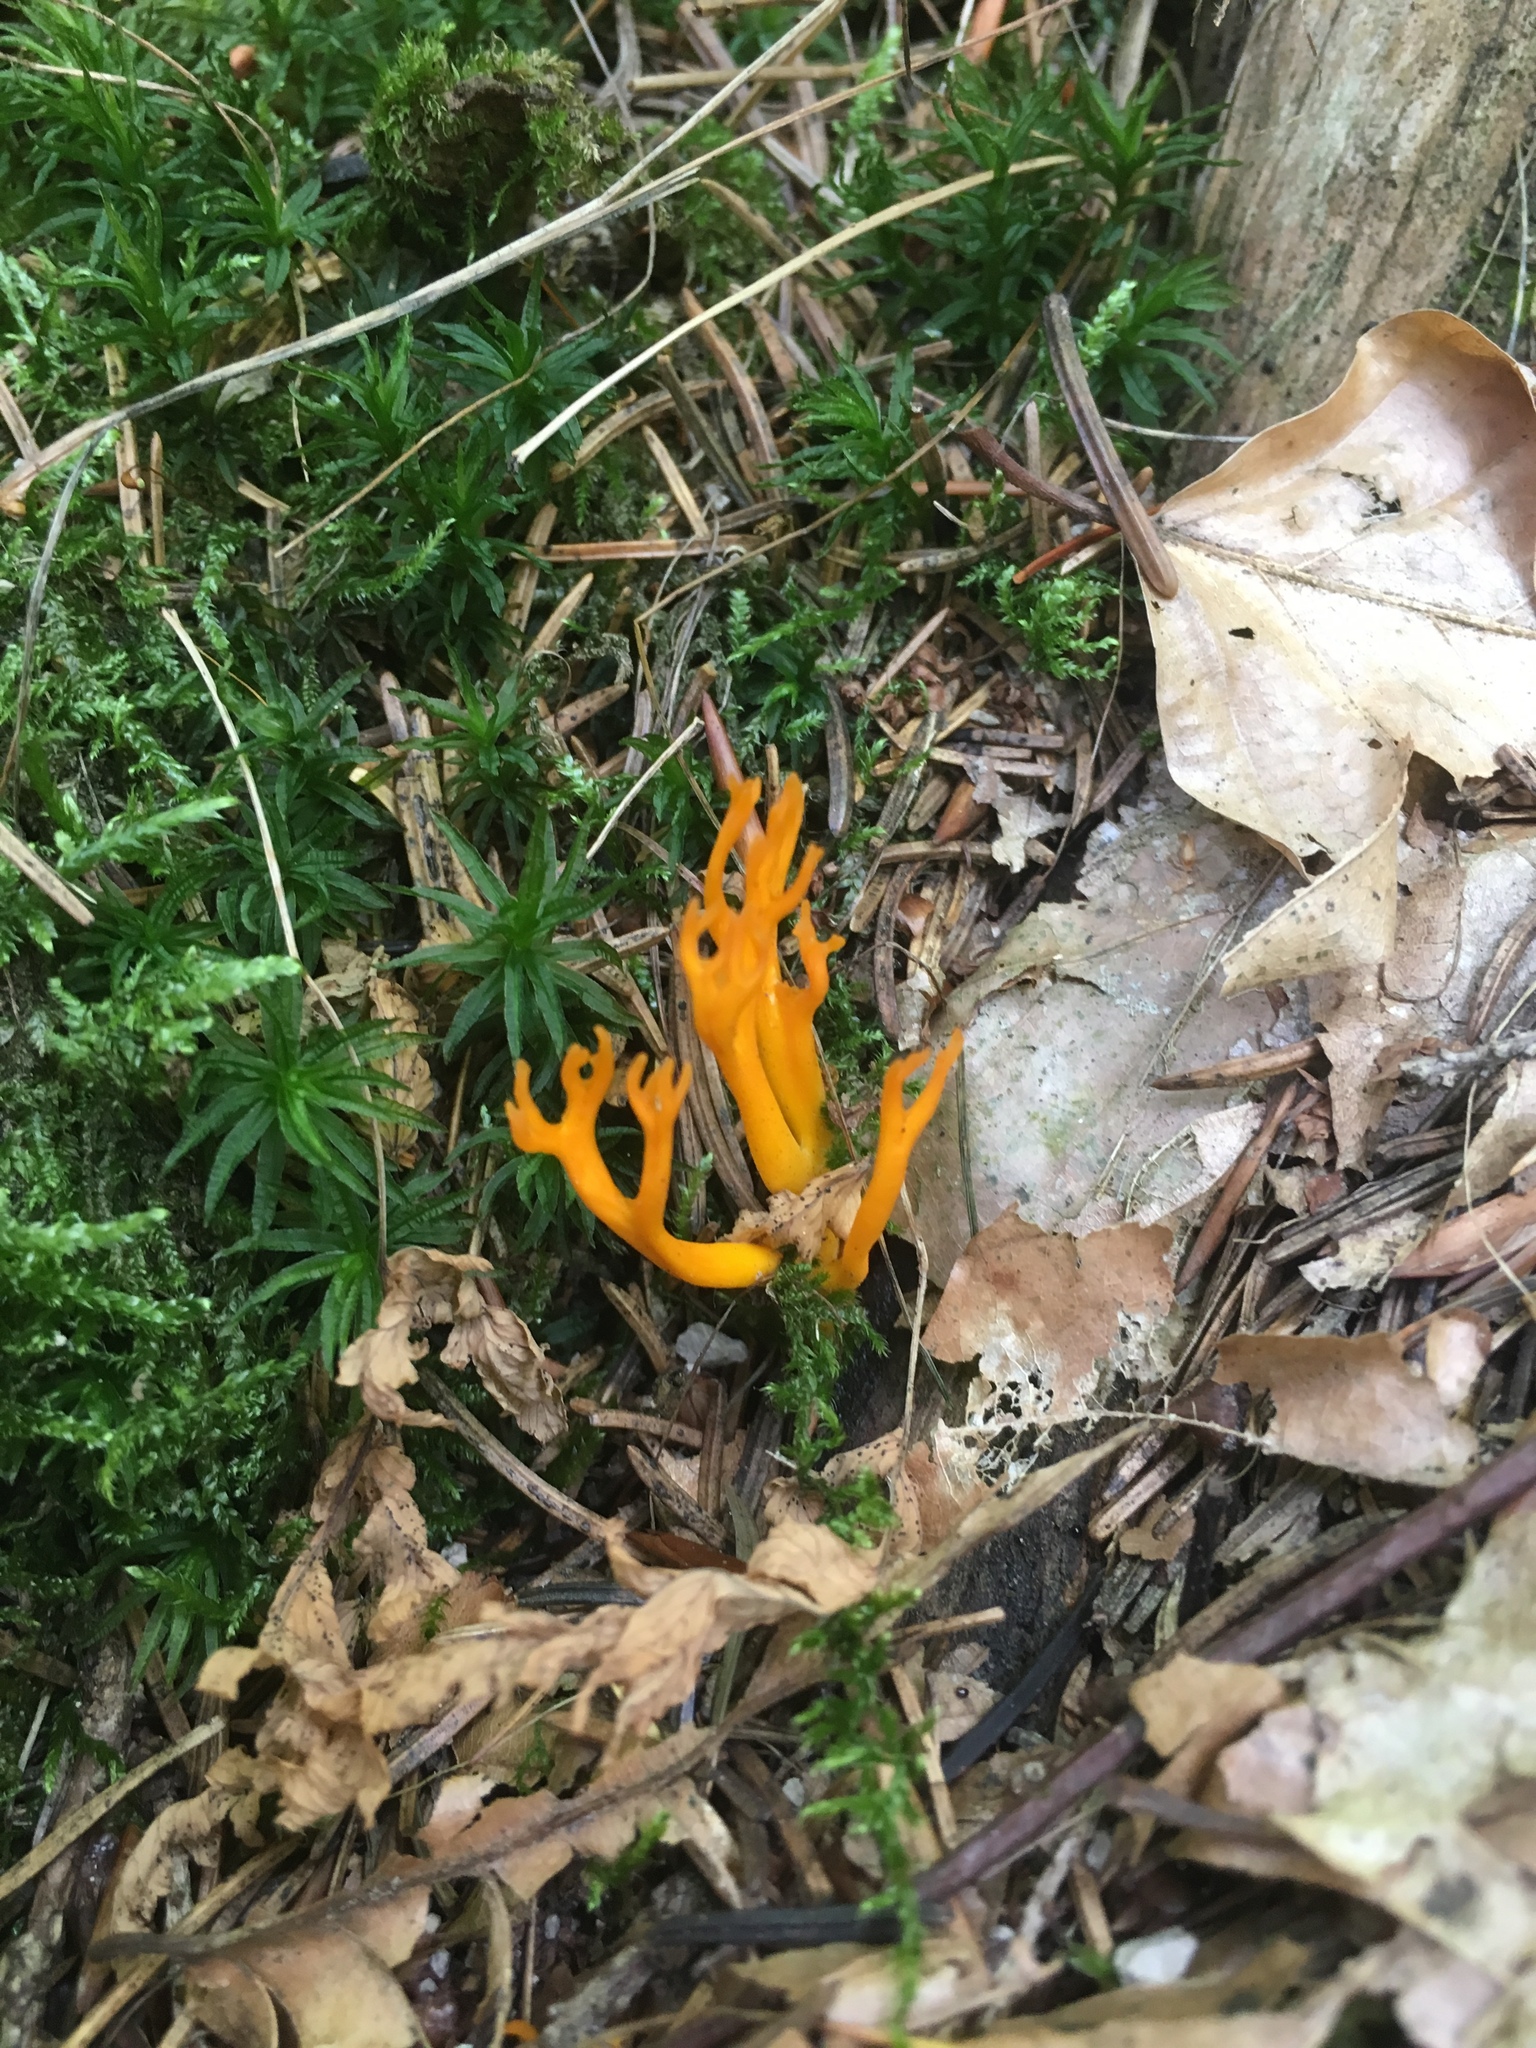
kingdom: Fungi
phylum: Basidiomycota
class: Dacrymycetes
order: Dacrymycetales
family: Dacrymycetaceae
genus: Calocera
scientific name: Calocera viscosa
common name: Yellow stagshorn
